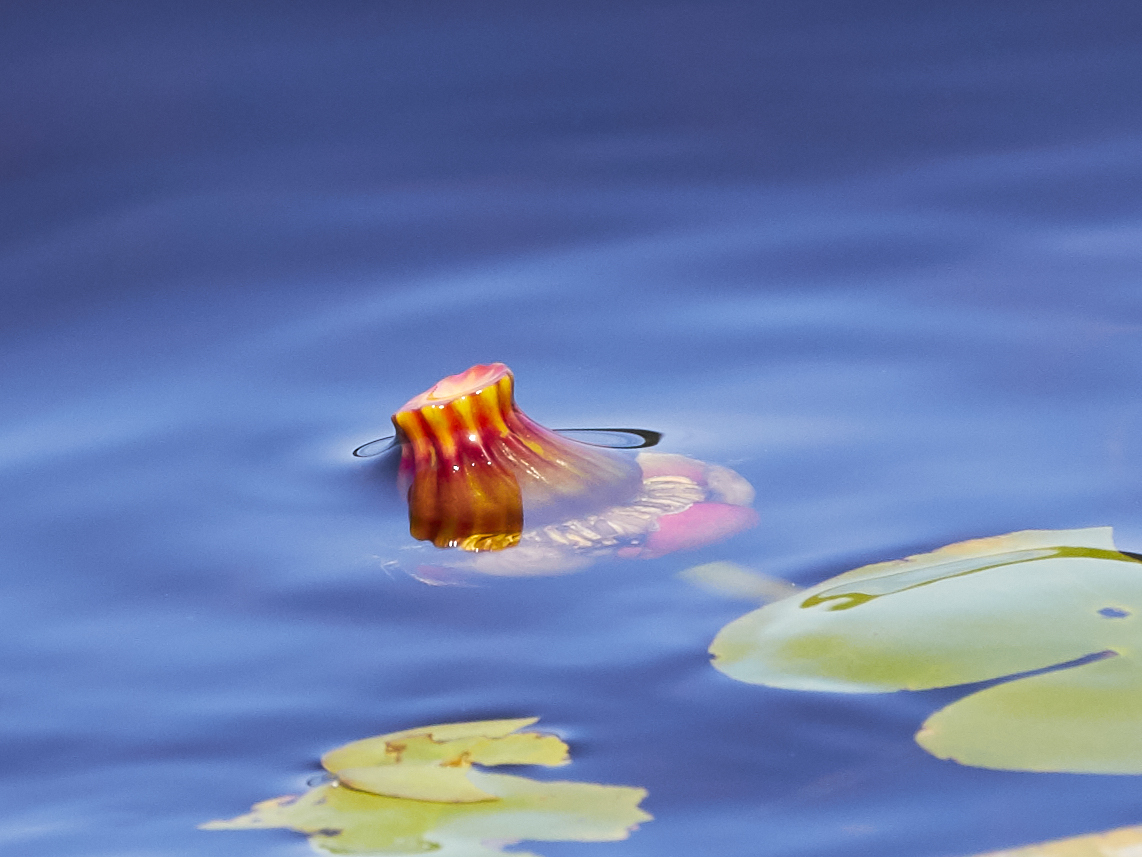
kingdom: Plantae
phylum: Tracheophyta
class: Magnoliopsida
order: Nymphaeales
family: Nymphaeaceae
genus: Nuphar
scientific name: Nuphar variegata
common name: Beaver-root
